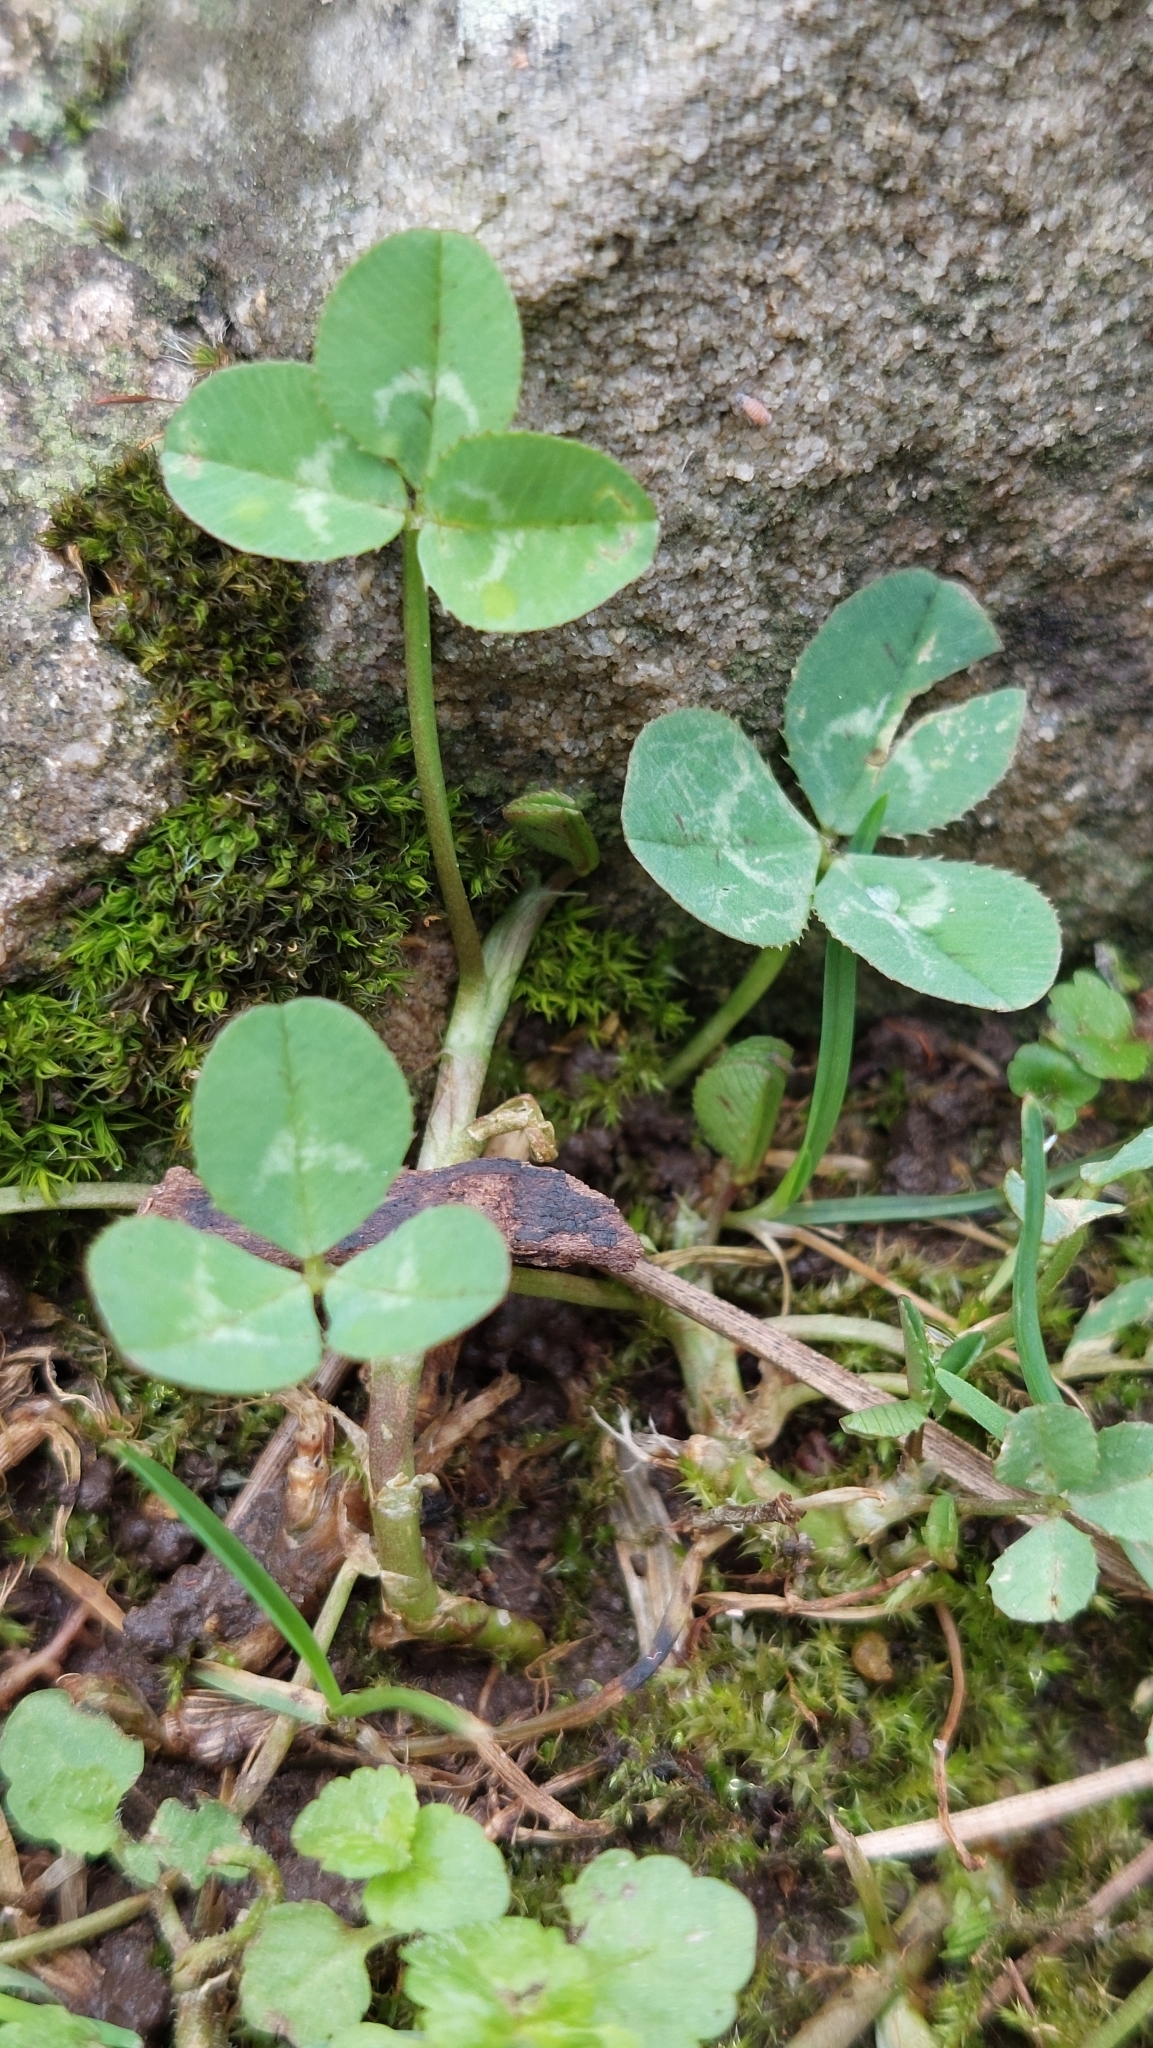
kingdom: Plantae
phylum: Tracheophyta
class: Magnoliopsida
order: Fabales
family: Fabaceae
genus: Trifolium
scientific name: Trifolium repens
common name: White clover
